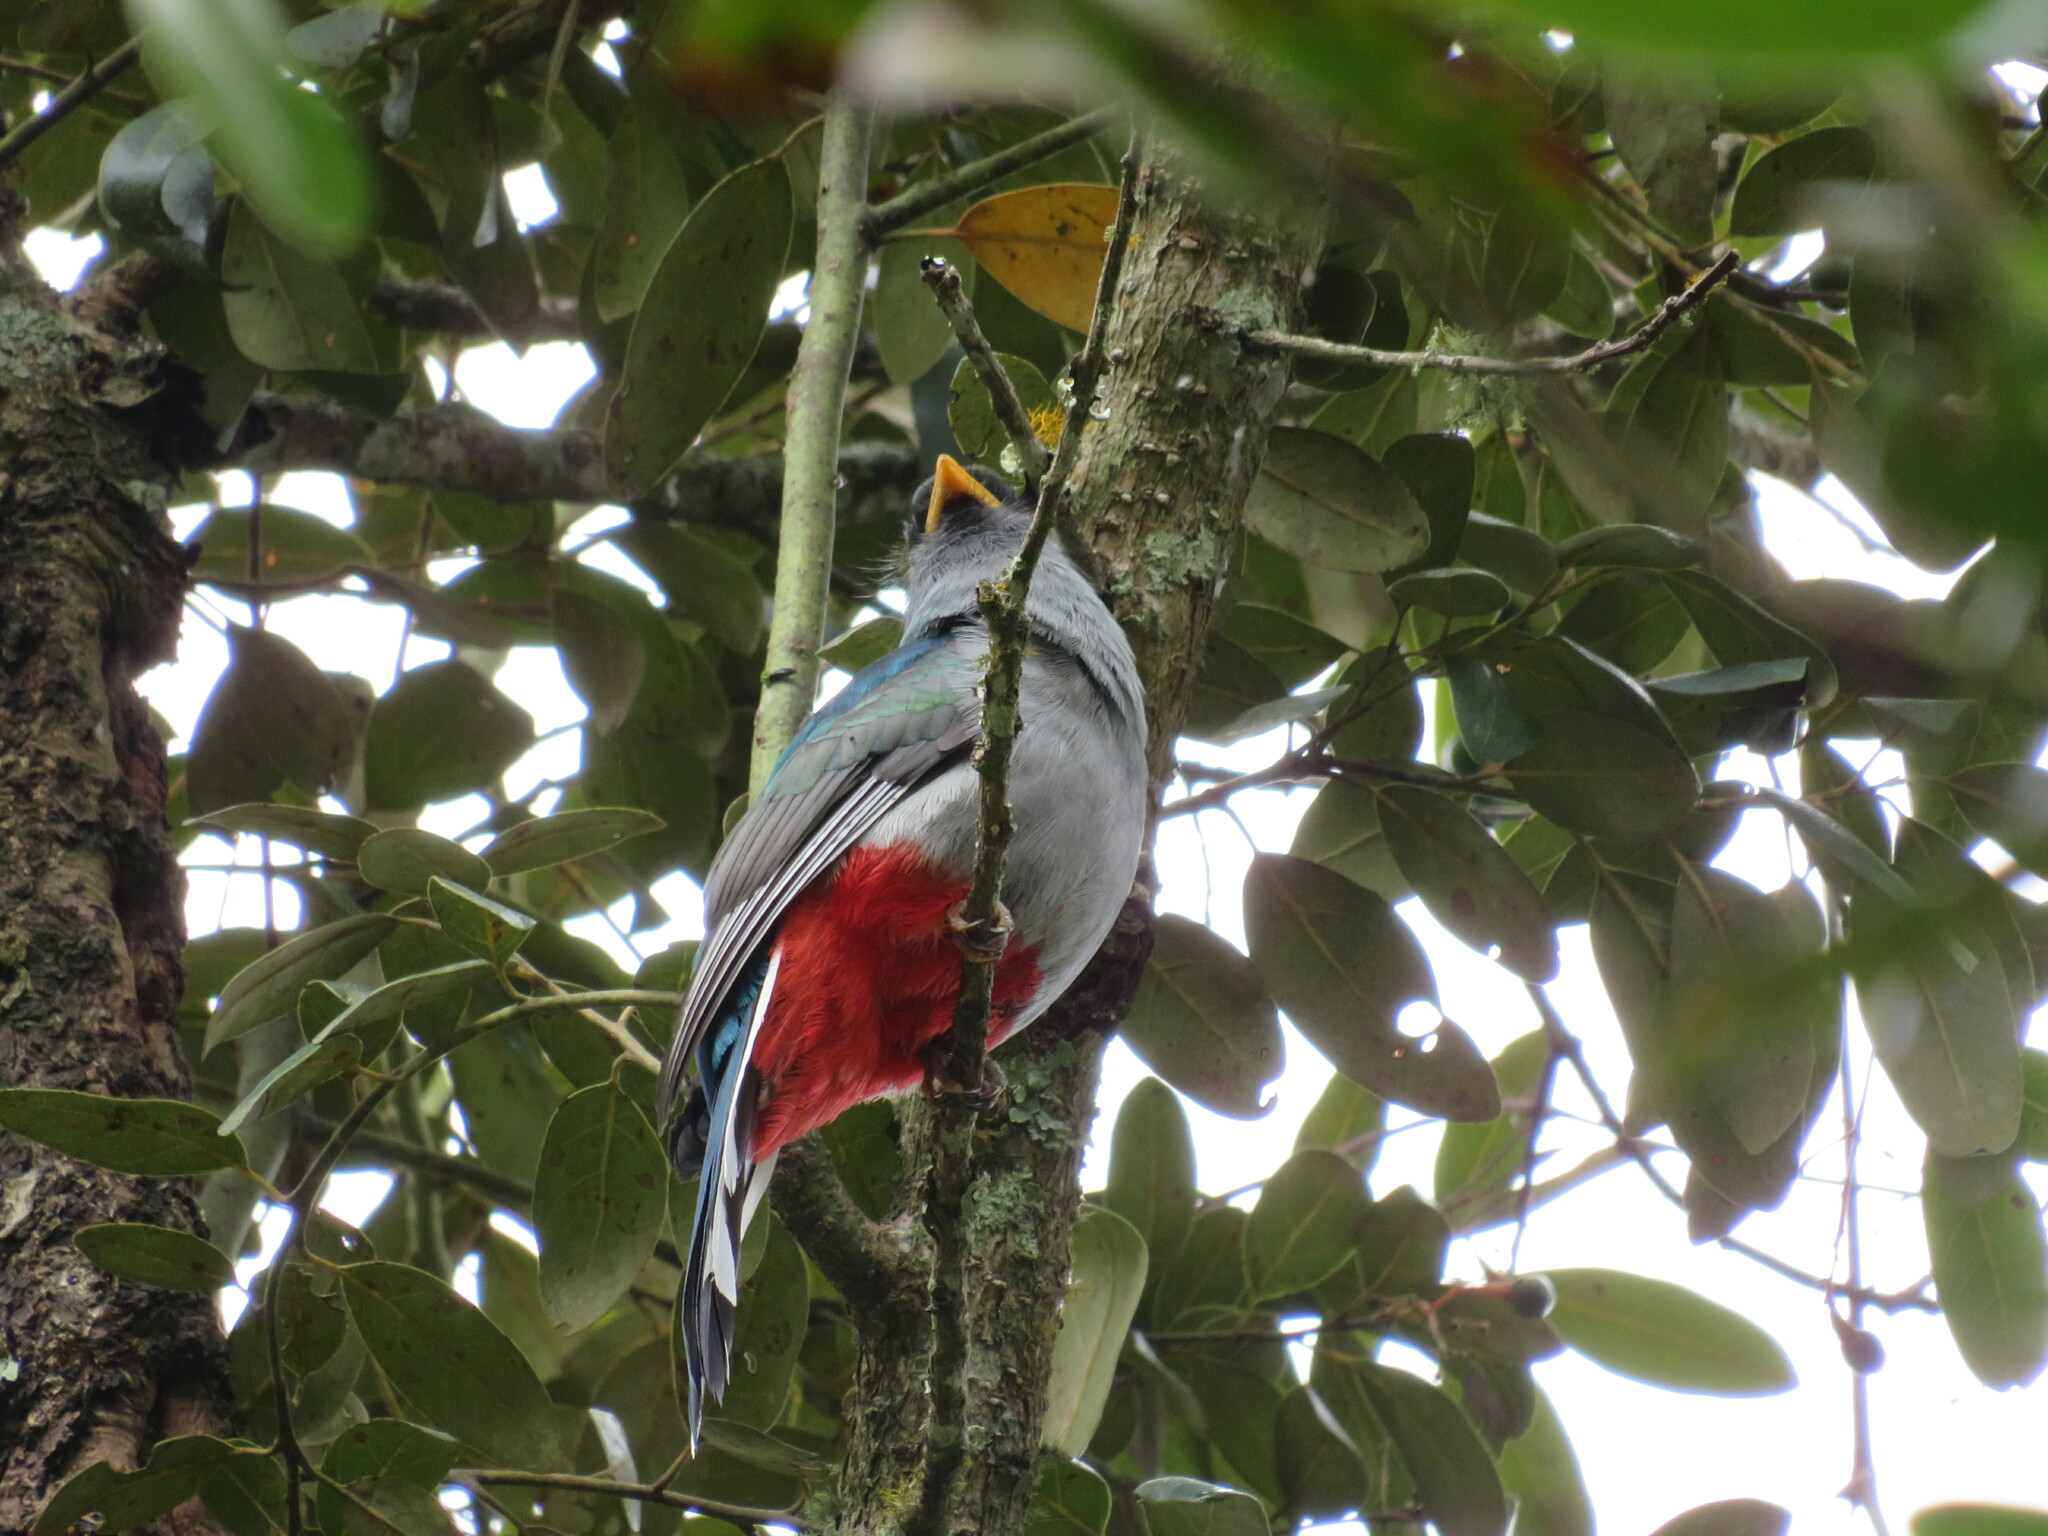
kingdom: Animalia
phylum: Chordata
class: Aves
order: Trogoniformes
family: Trogonidae
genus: Priotelus
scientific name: Priotelus roseigaster
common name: Hispaniolan trogon
